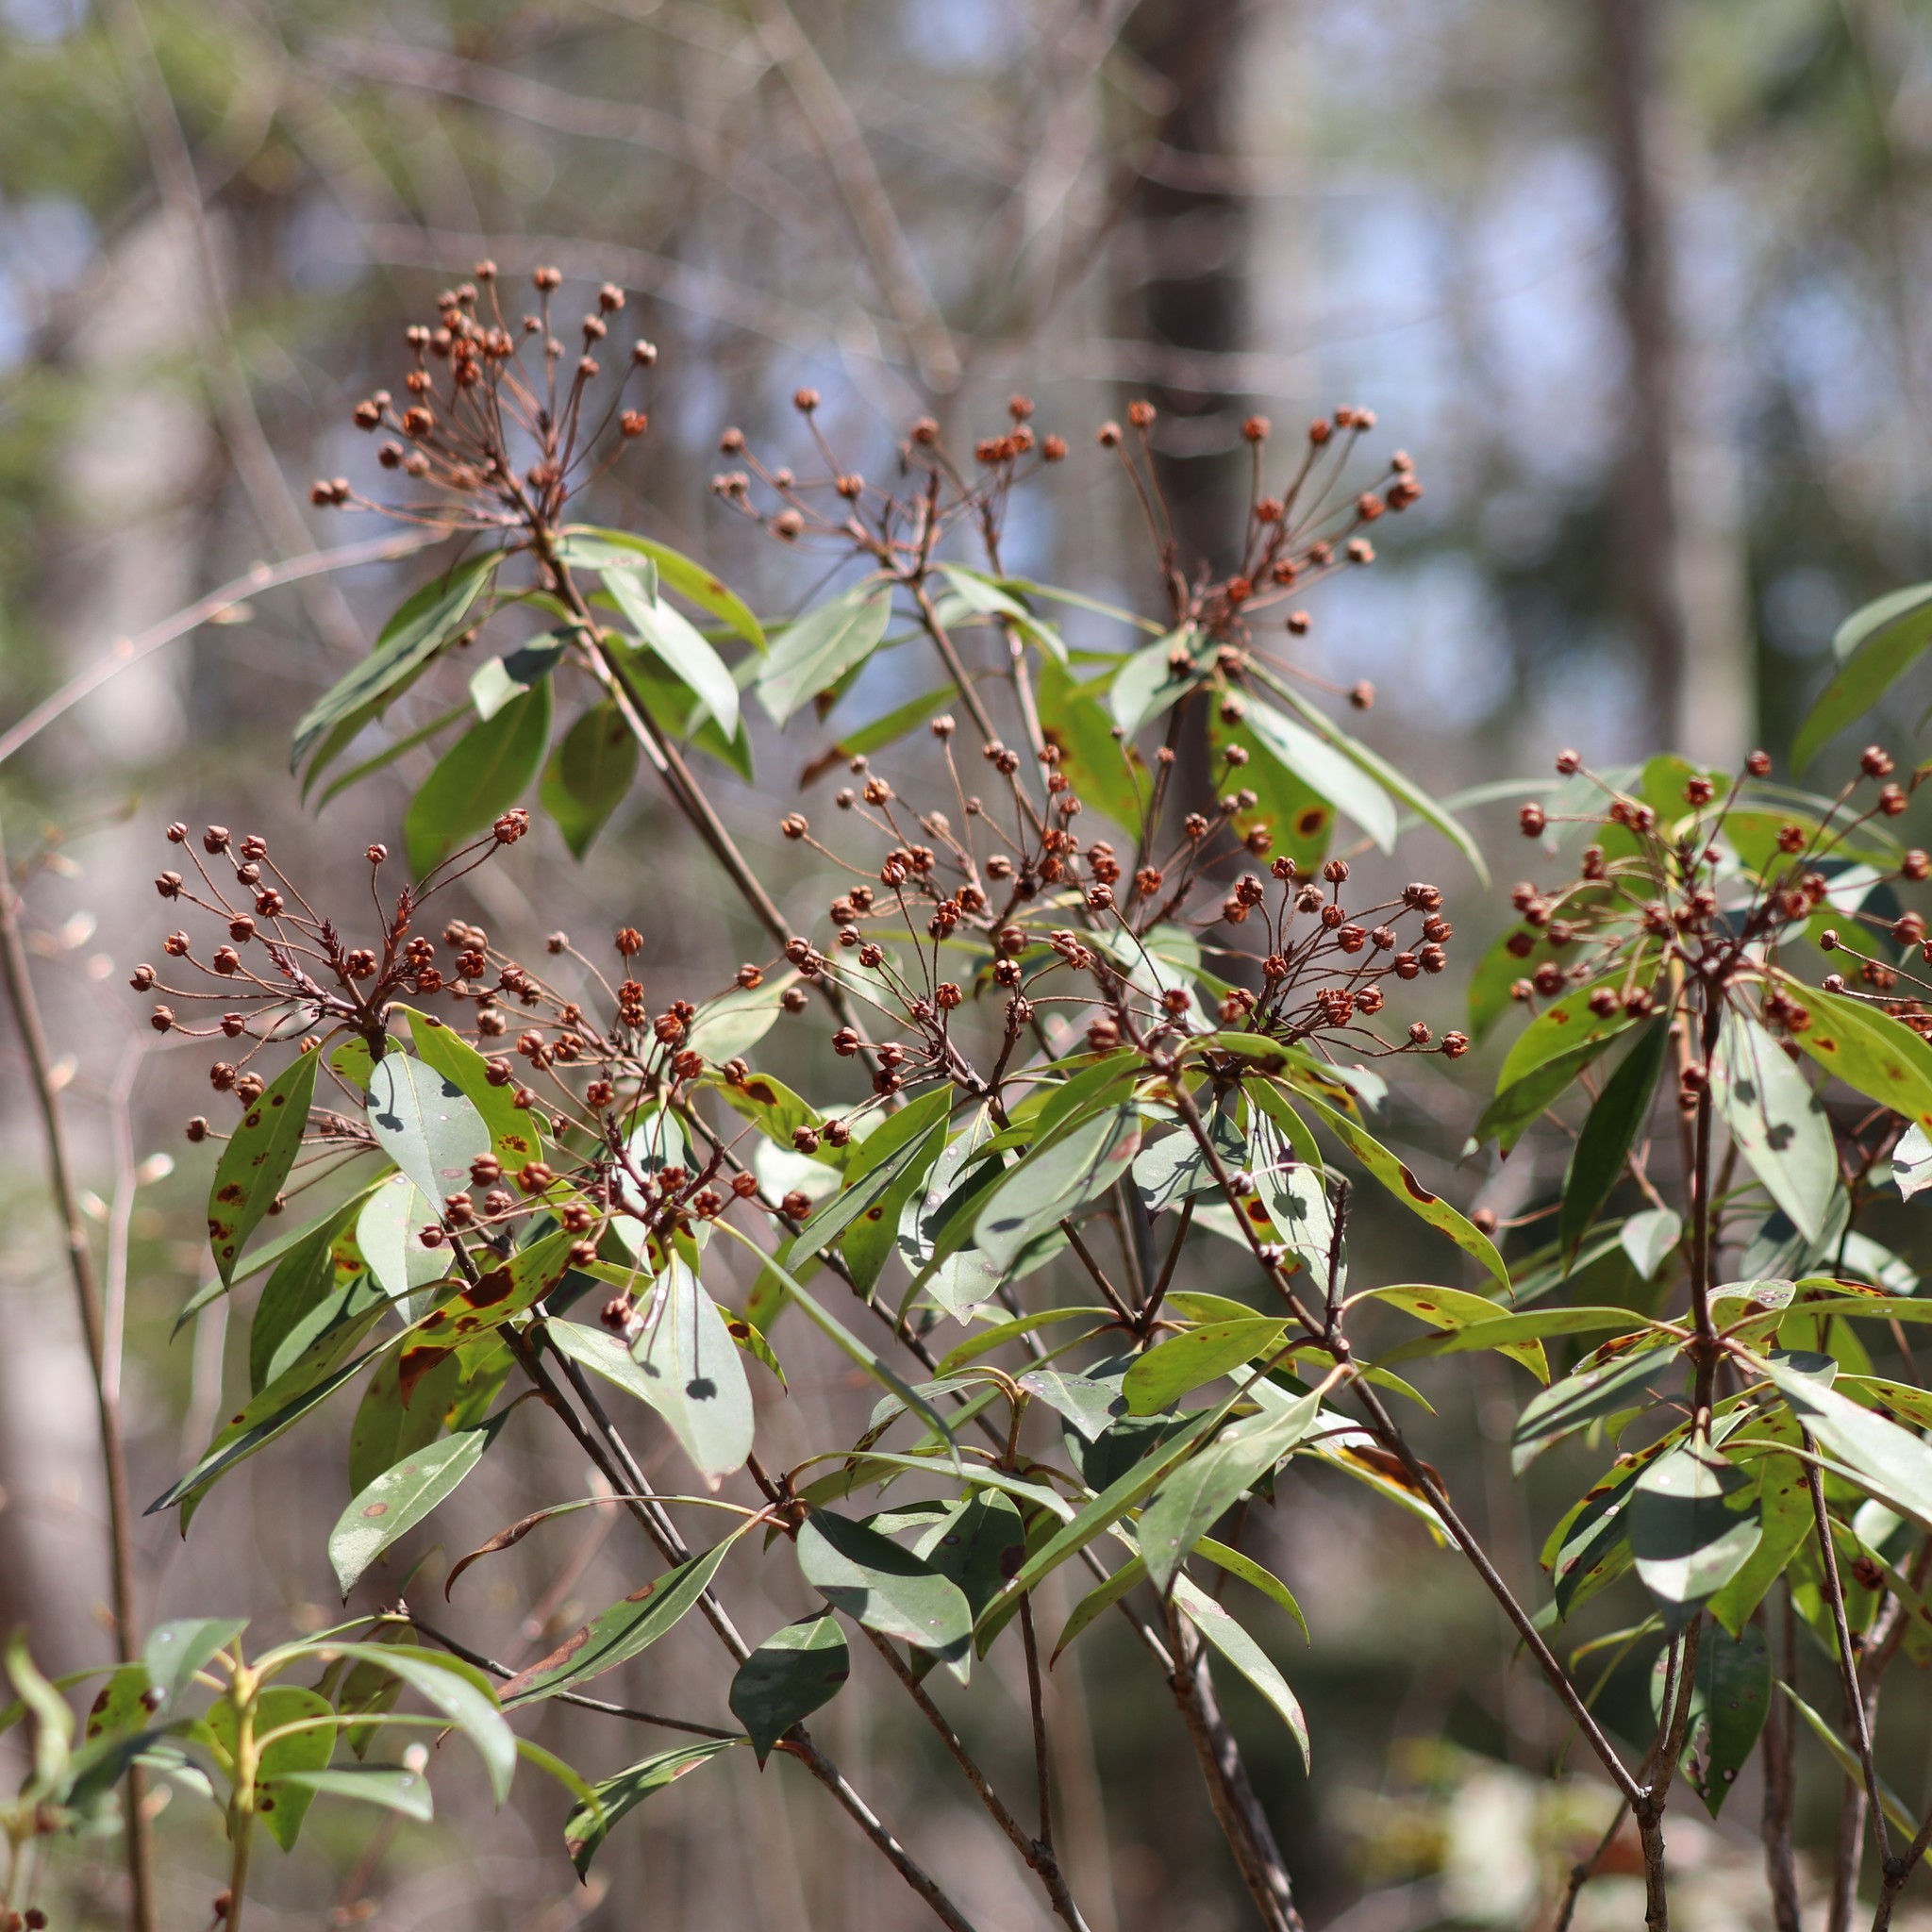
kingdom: Plantae
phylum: Tracheophyta
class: Magnoliopsida
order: Ericales
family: Ericaceae
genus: Kalmia
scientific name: Kalmia latifolia
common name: Mountain-laurel
